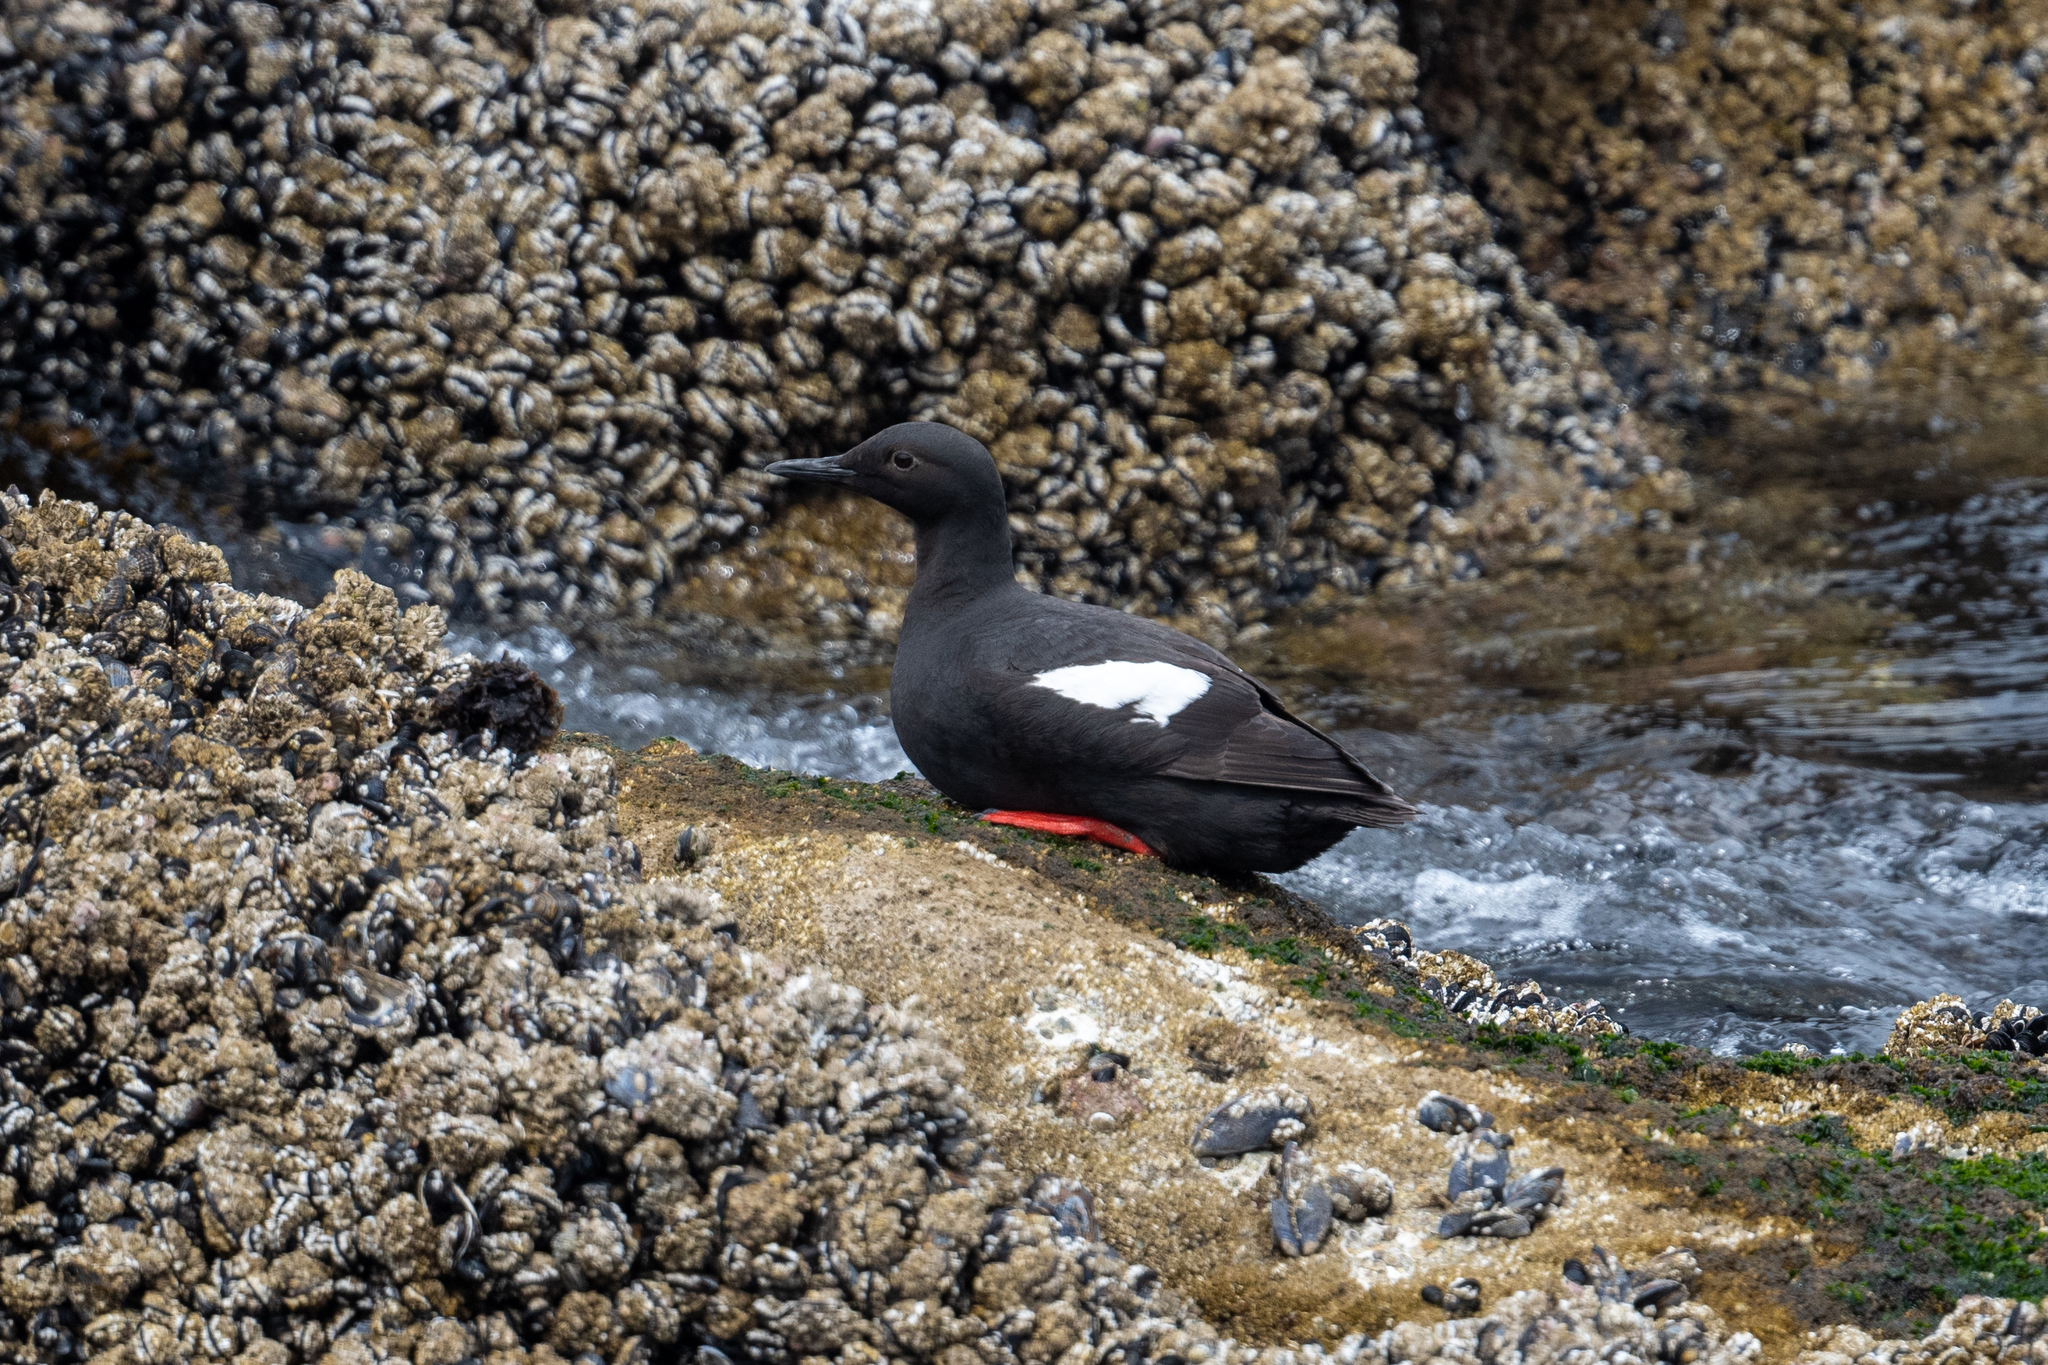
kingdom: Animalia
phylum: Chordata
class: Aves
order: Charadriiformes
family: Alcidae
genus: Cepphus
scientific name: Cepphus columba
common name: Pigeon guillemot
